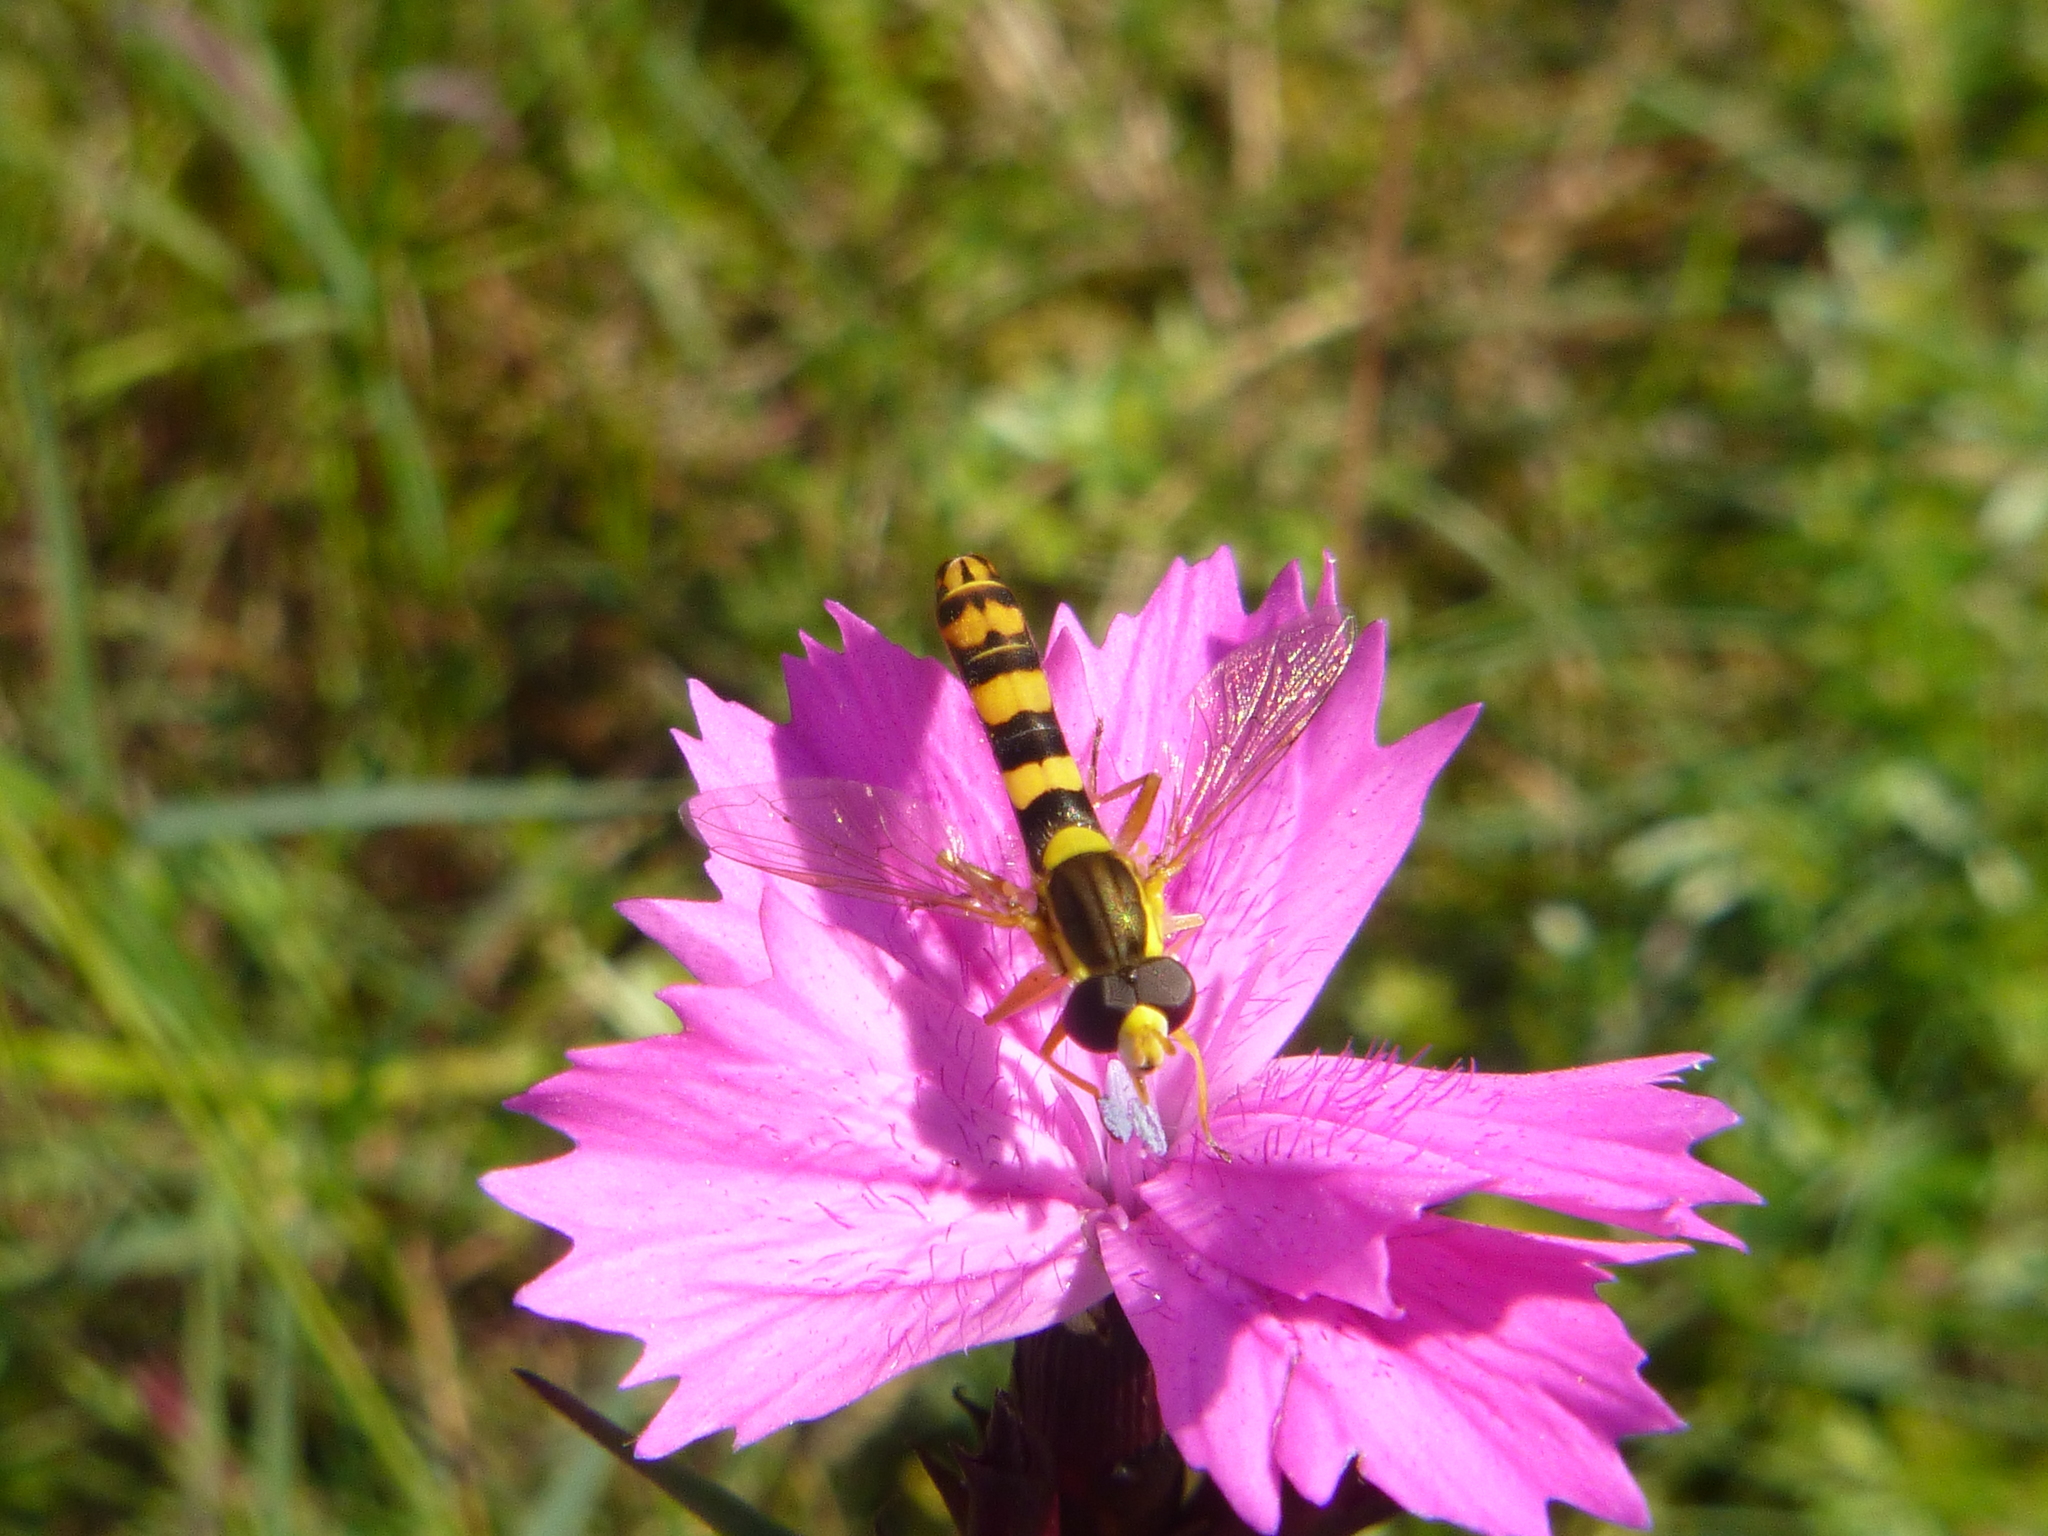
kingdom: Animalia
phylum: Arthropoda
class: Insecta
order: Diptera
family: Syrphidae
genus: Sphaerophoria
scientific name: Sphaerophoria scripta
